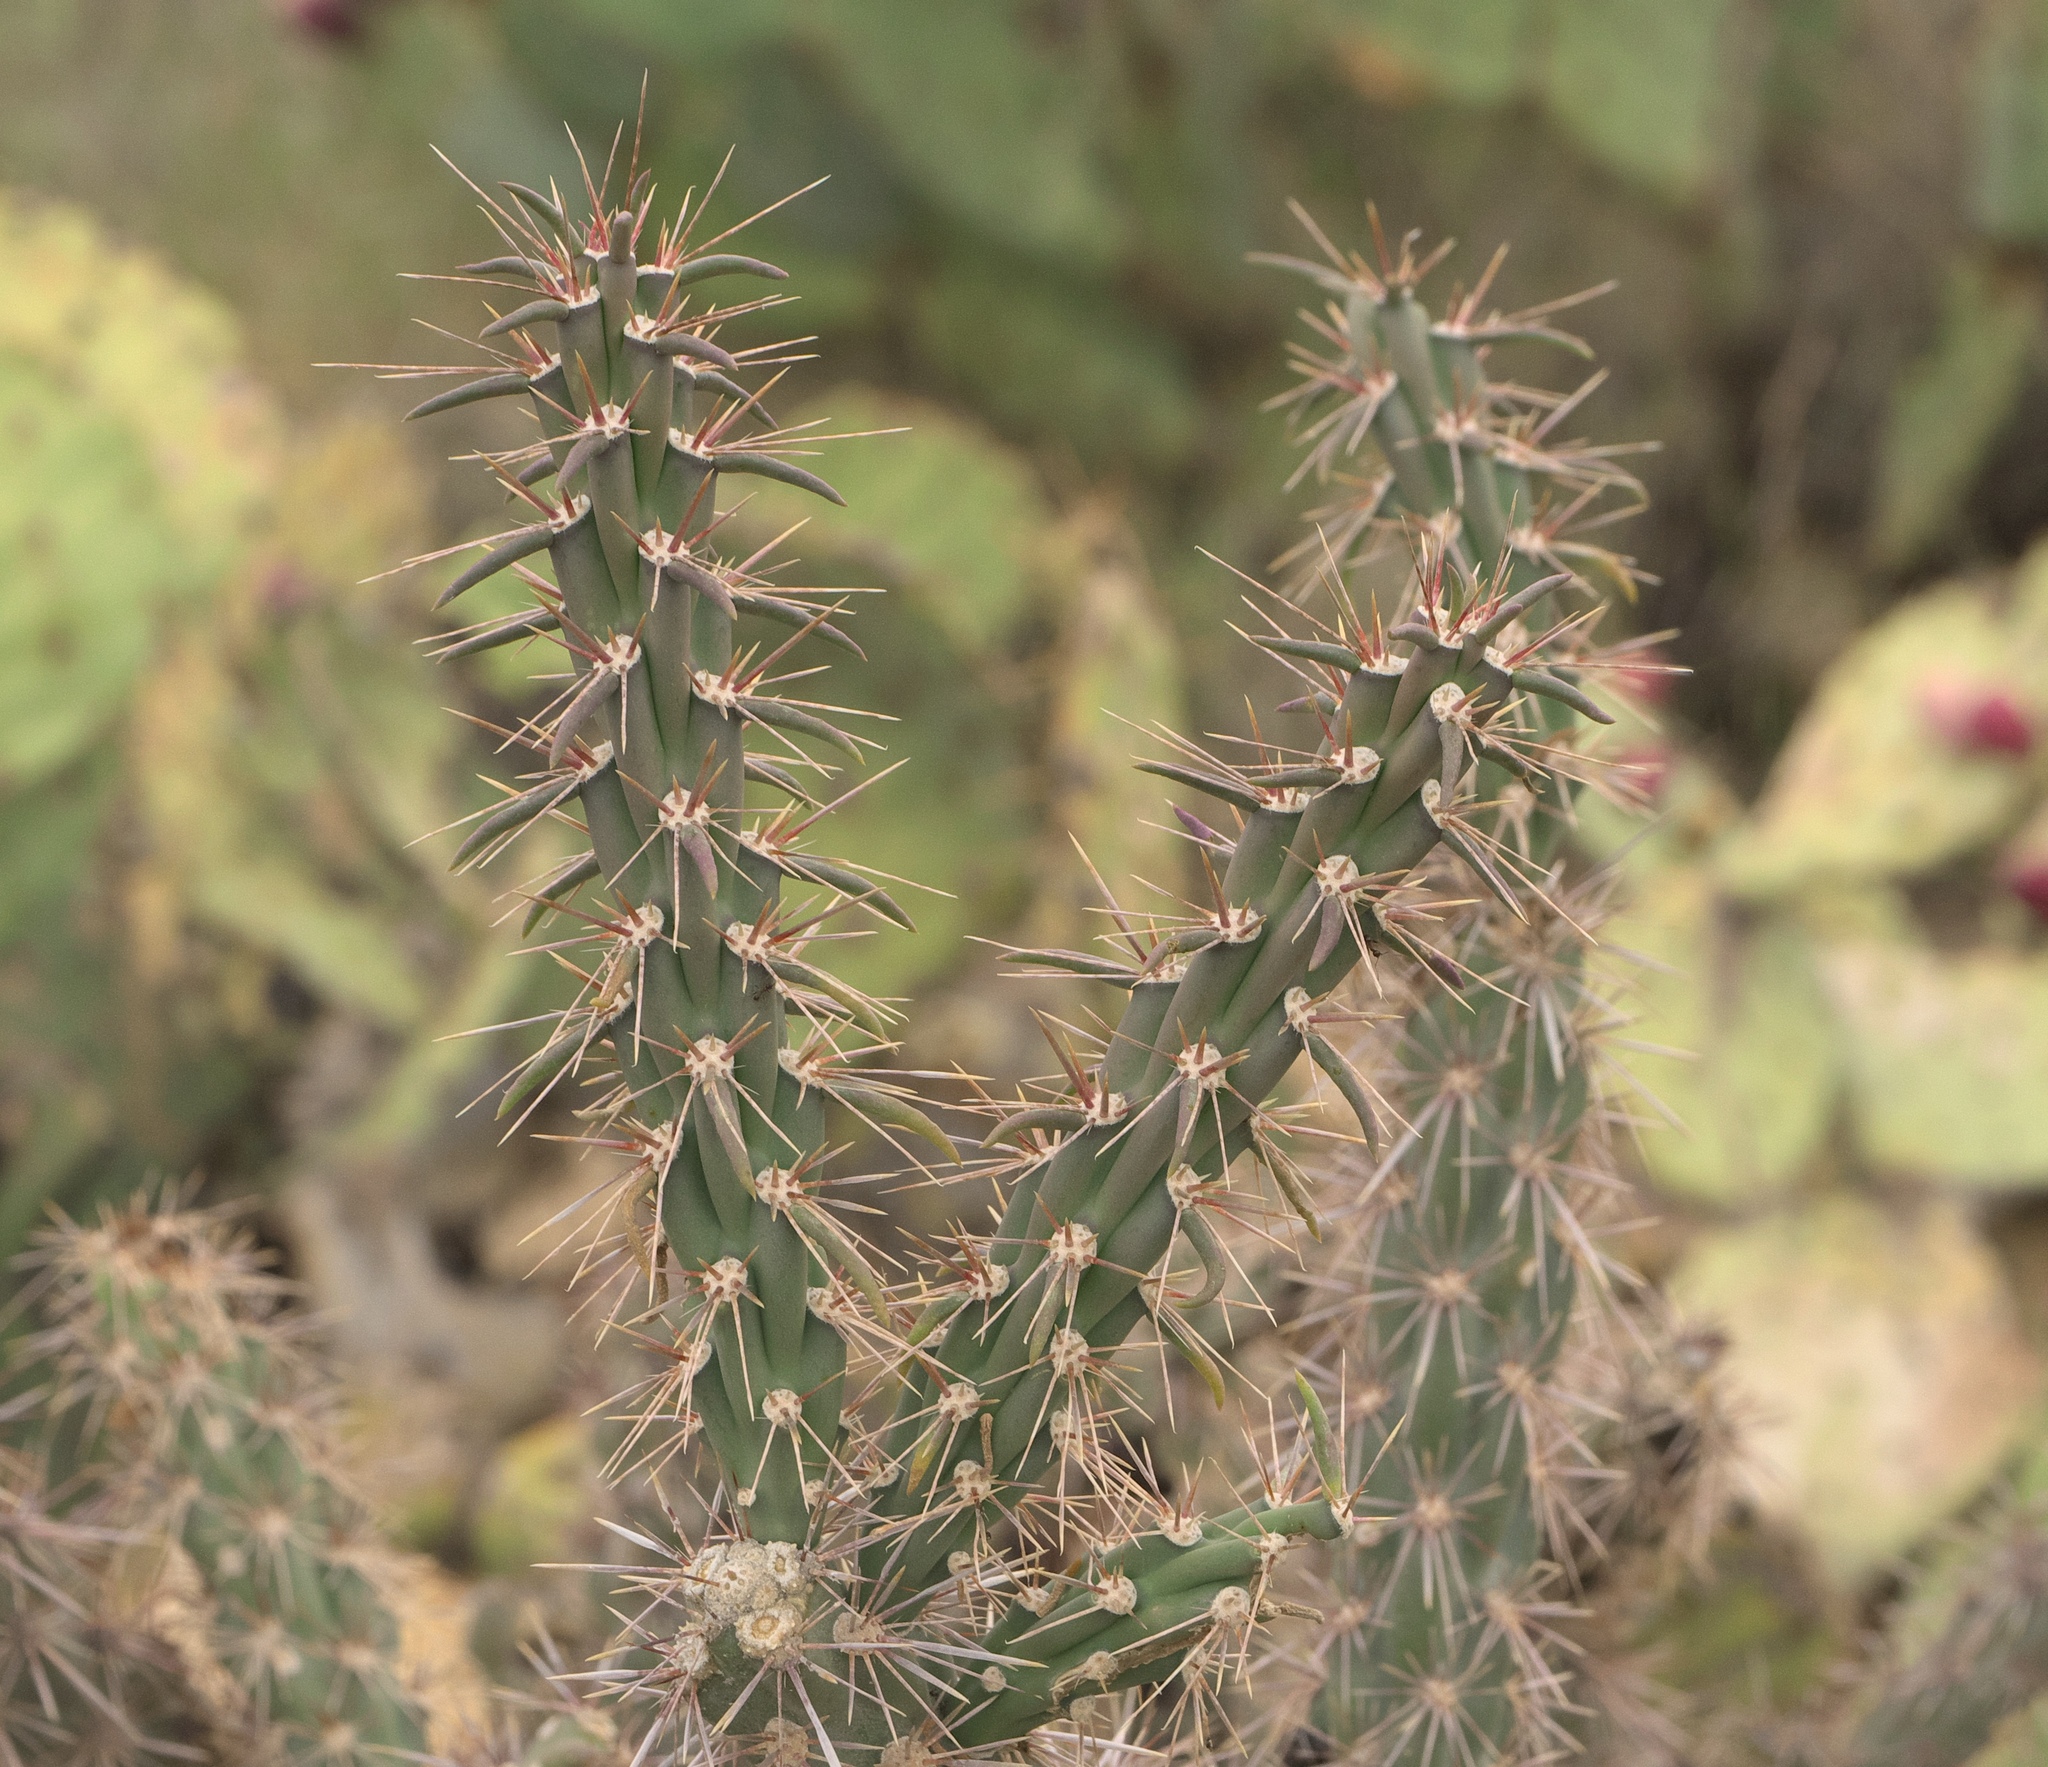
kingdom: Plantae
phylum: Tracheophyta
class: Magnoliopsida
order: Caryophyllales
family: Cactaceae
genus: Cylindropuntia
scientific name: Cylindropuntia acanthocarpa
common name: Buckhorn cholla
